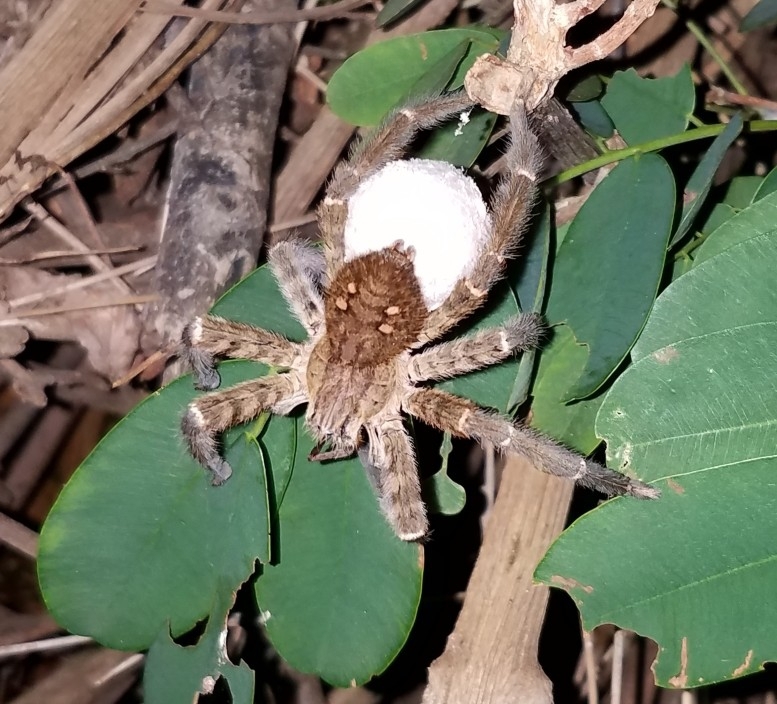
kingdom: Animalia
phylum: Arthropoda
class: Arachnida
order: Araneae
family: Trechaleidae
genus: Cupiennius
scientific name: Cupiennius salei
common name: Wandering spiders
